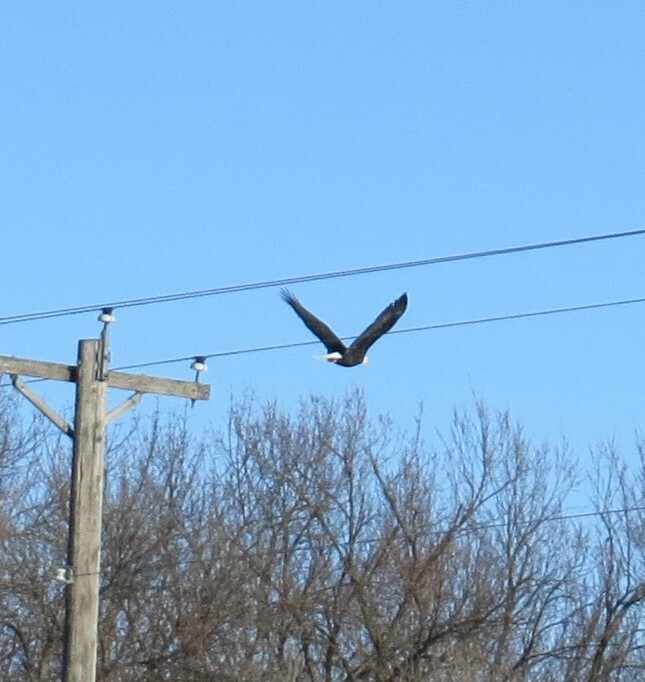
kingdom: Animalia
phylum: Chordata
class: Aves
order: Accipitriformes
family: Accipitridae
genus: Haliaeetus
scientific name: Haliaeetus leucocephalus
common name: Bald eagle
